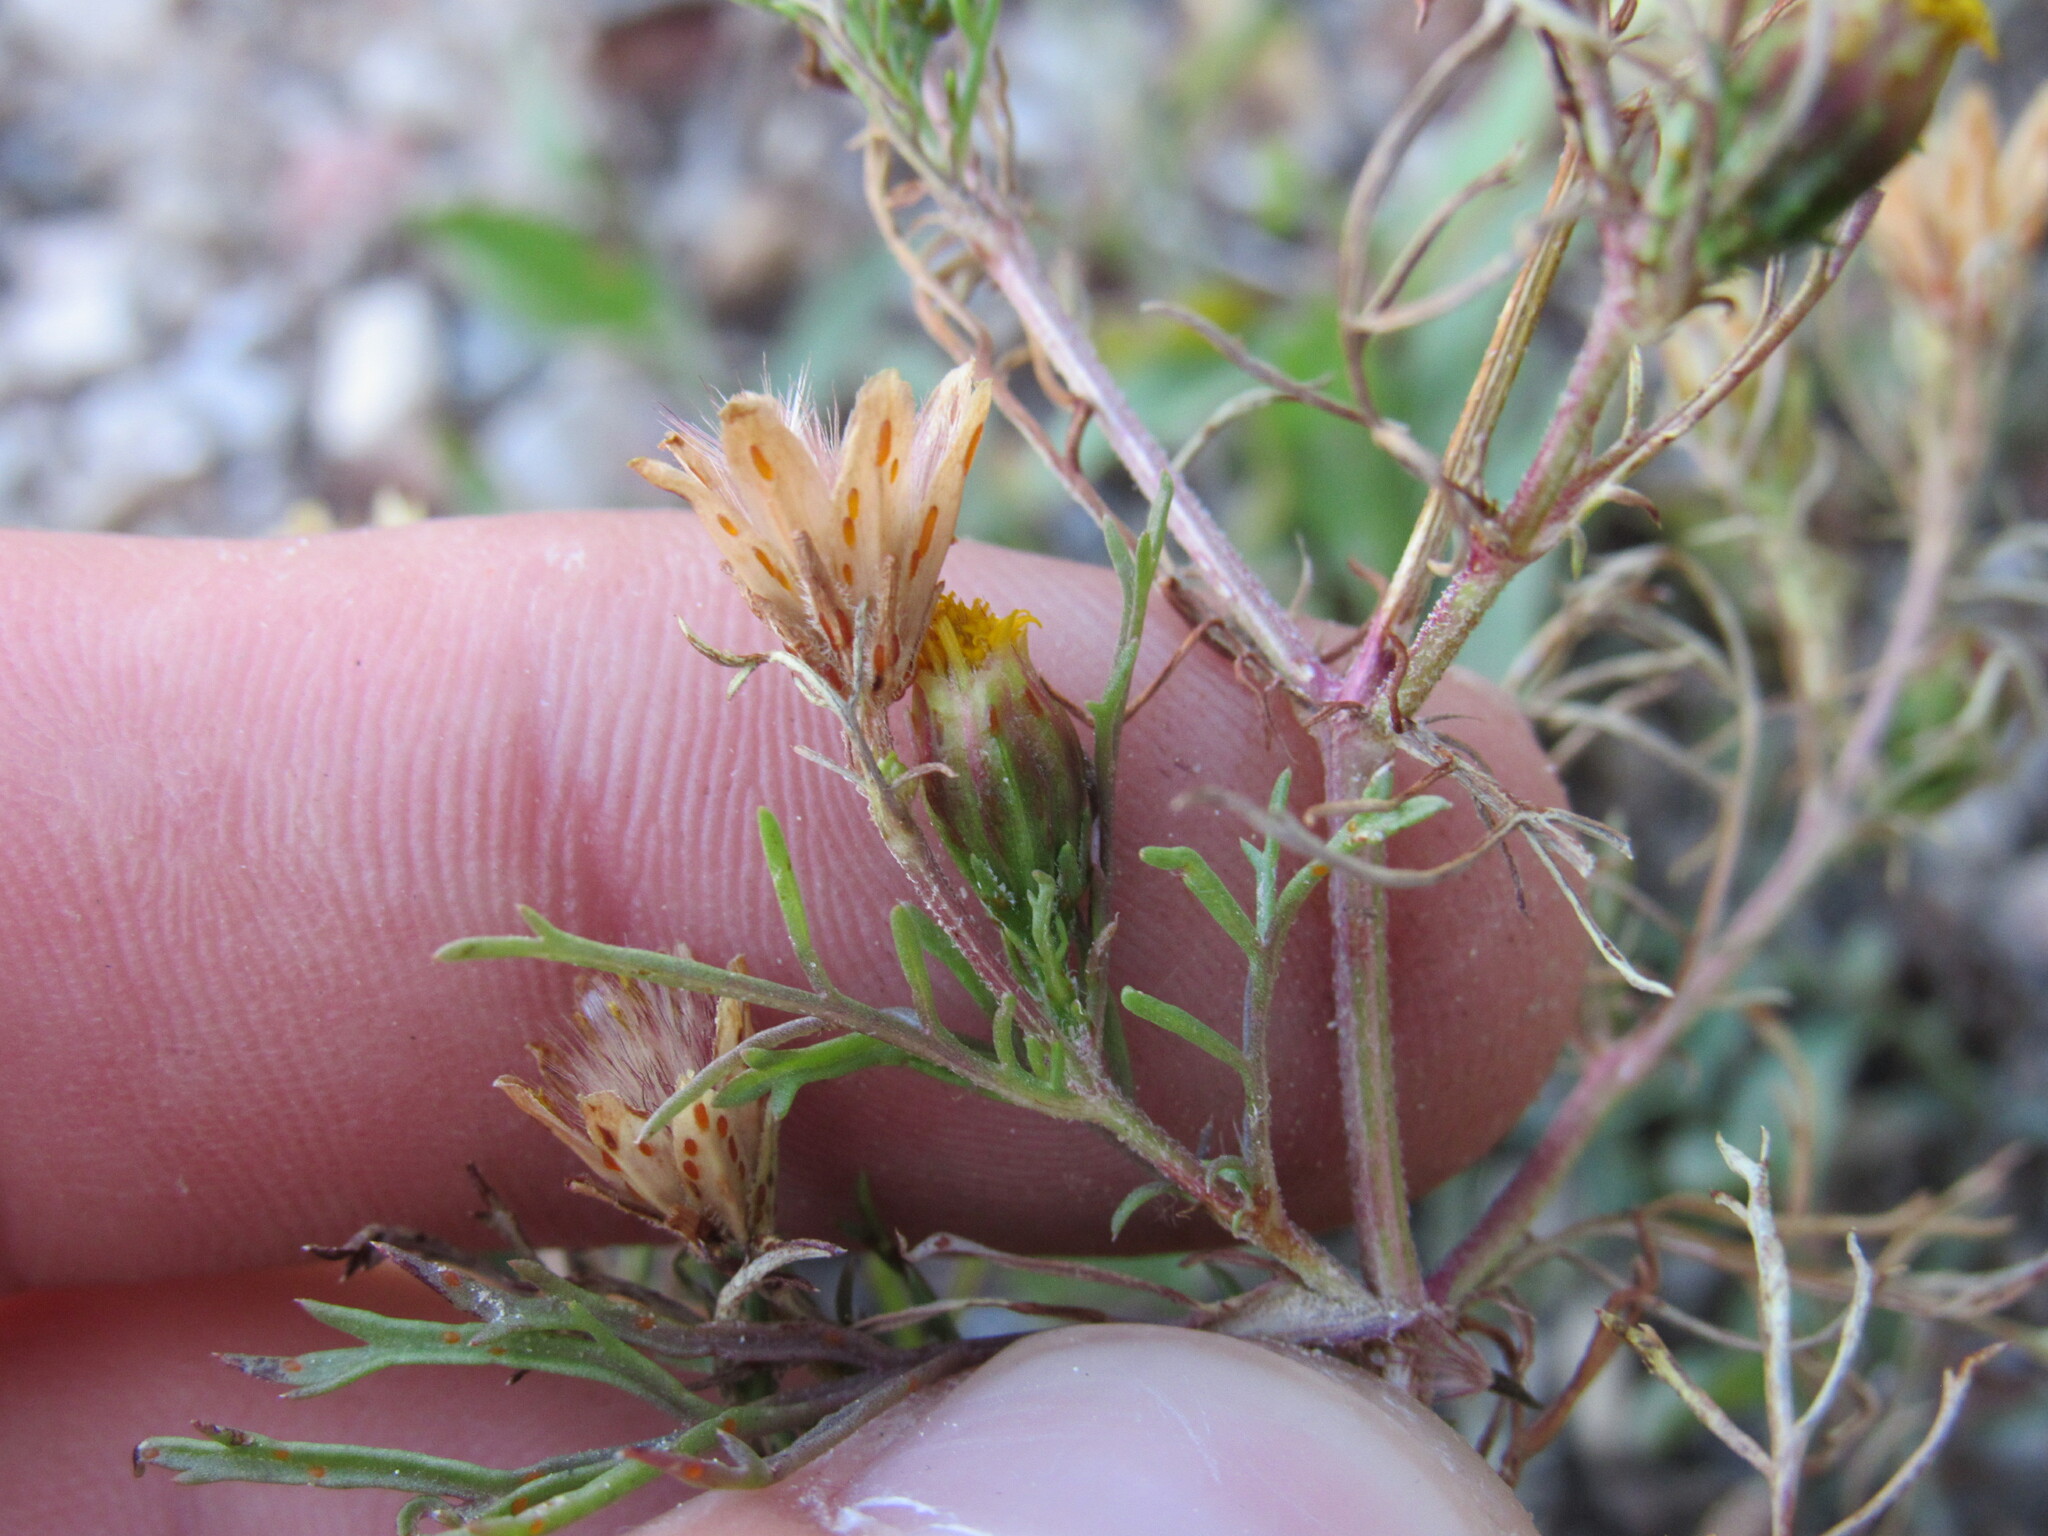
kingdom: Plantae
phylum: Tracheophyta
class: Magnoliopsida
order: Asterales
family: Asteraceae
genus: Dyssodia
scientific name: Dyssodia papposa
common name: Dogweed
